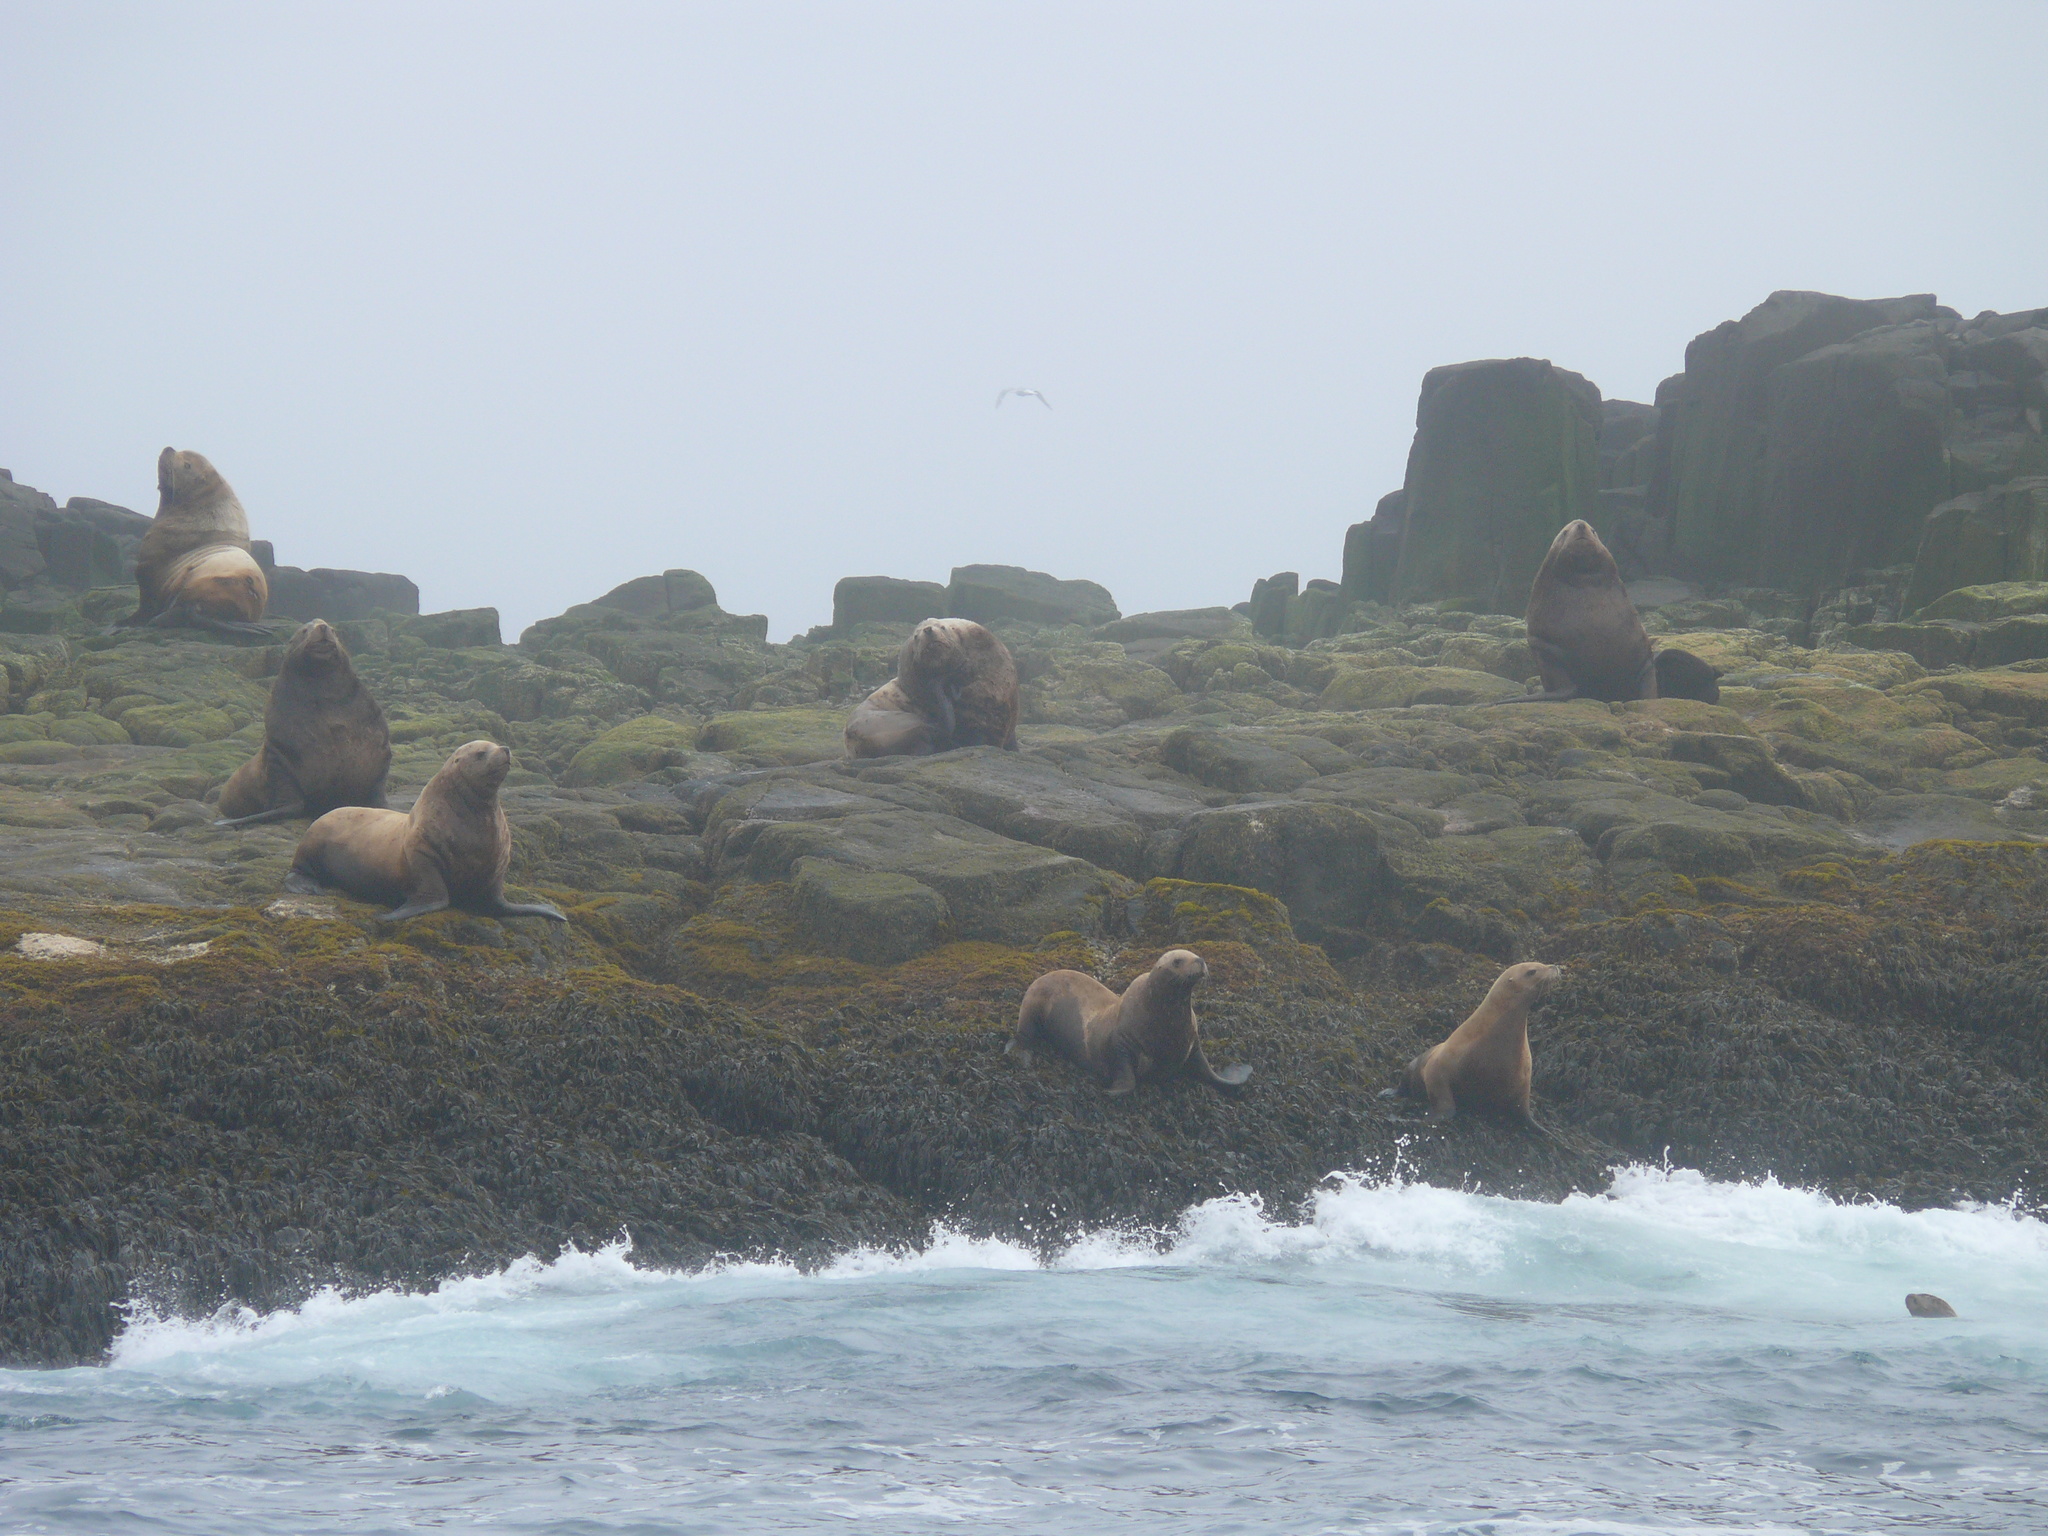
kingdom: Animalia
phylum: Chordata
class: Mammalia
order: Carnivora
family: Otariidae
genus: Eumetopias
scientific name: Eumetopias jubatus
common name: Steller sea lion
